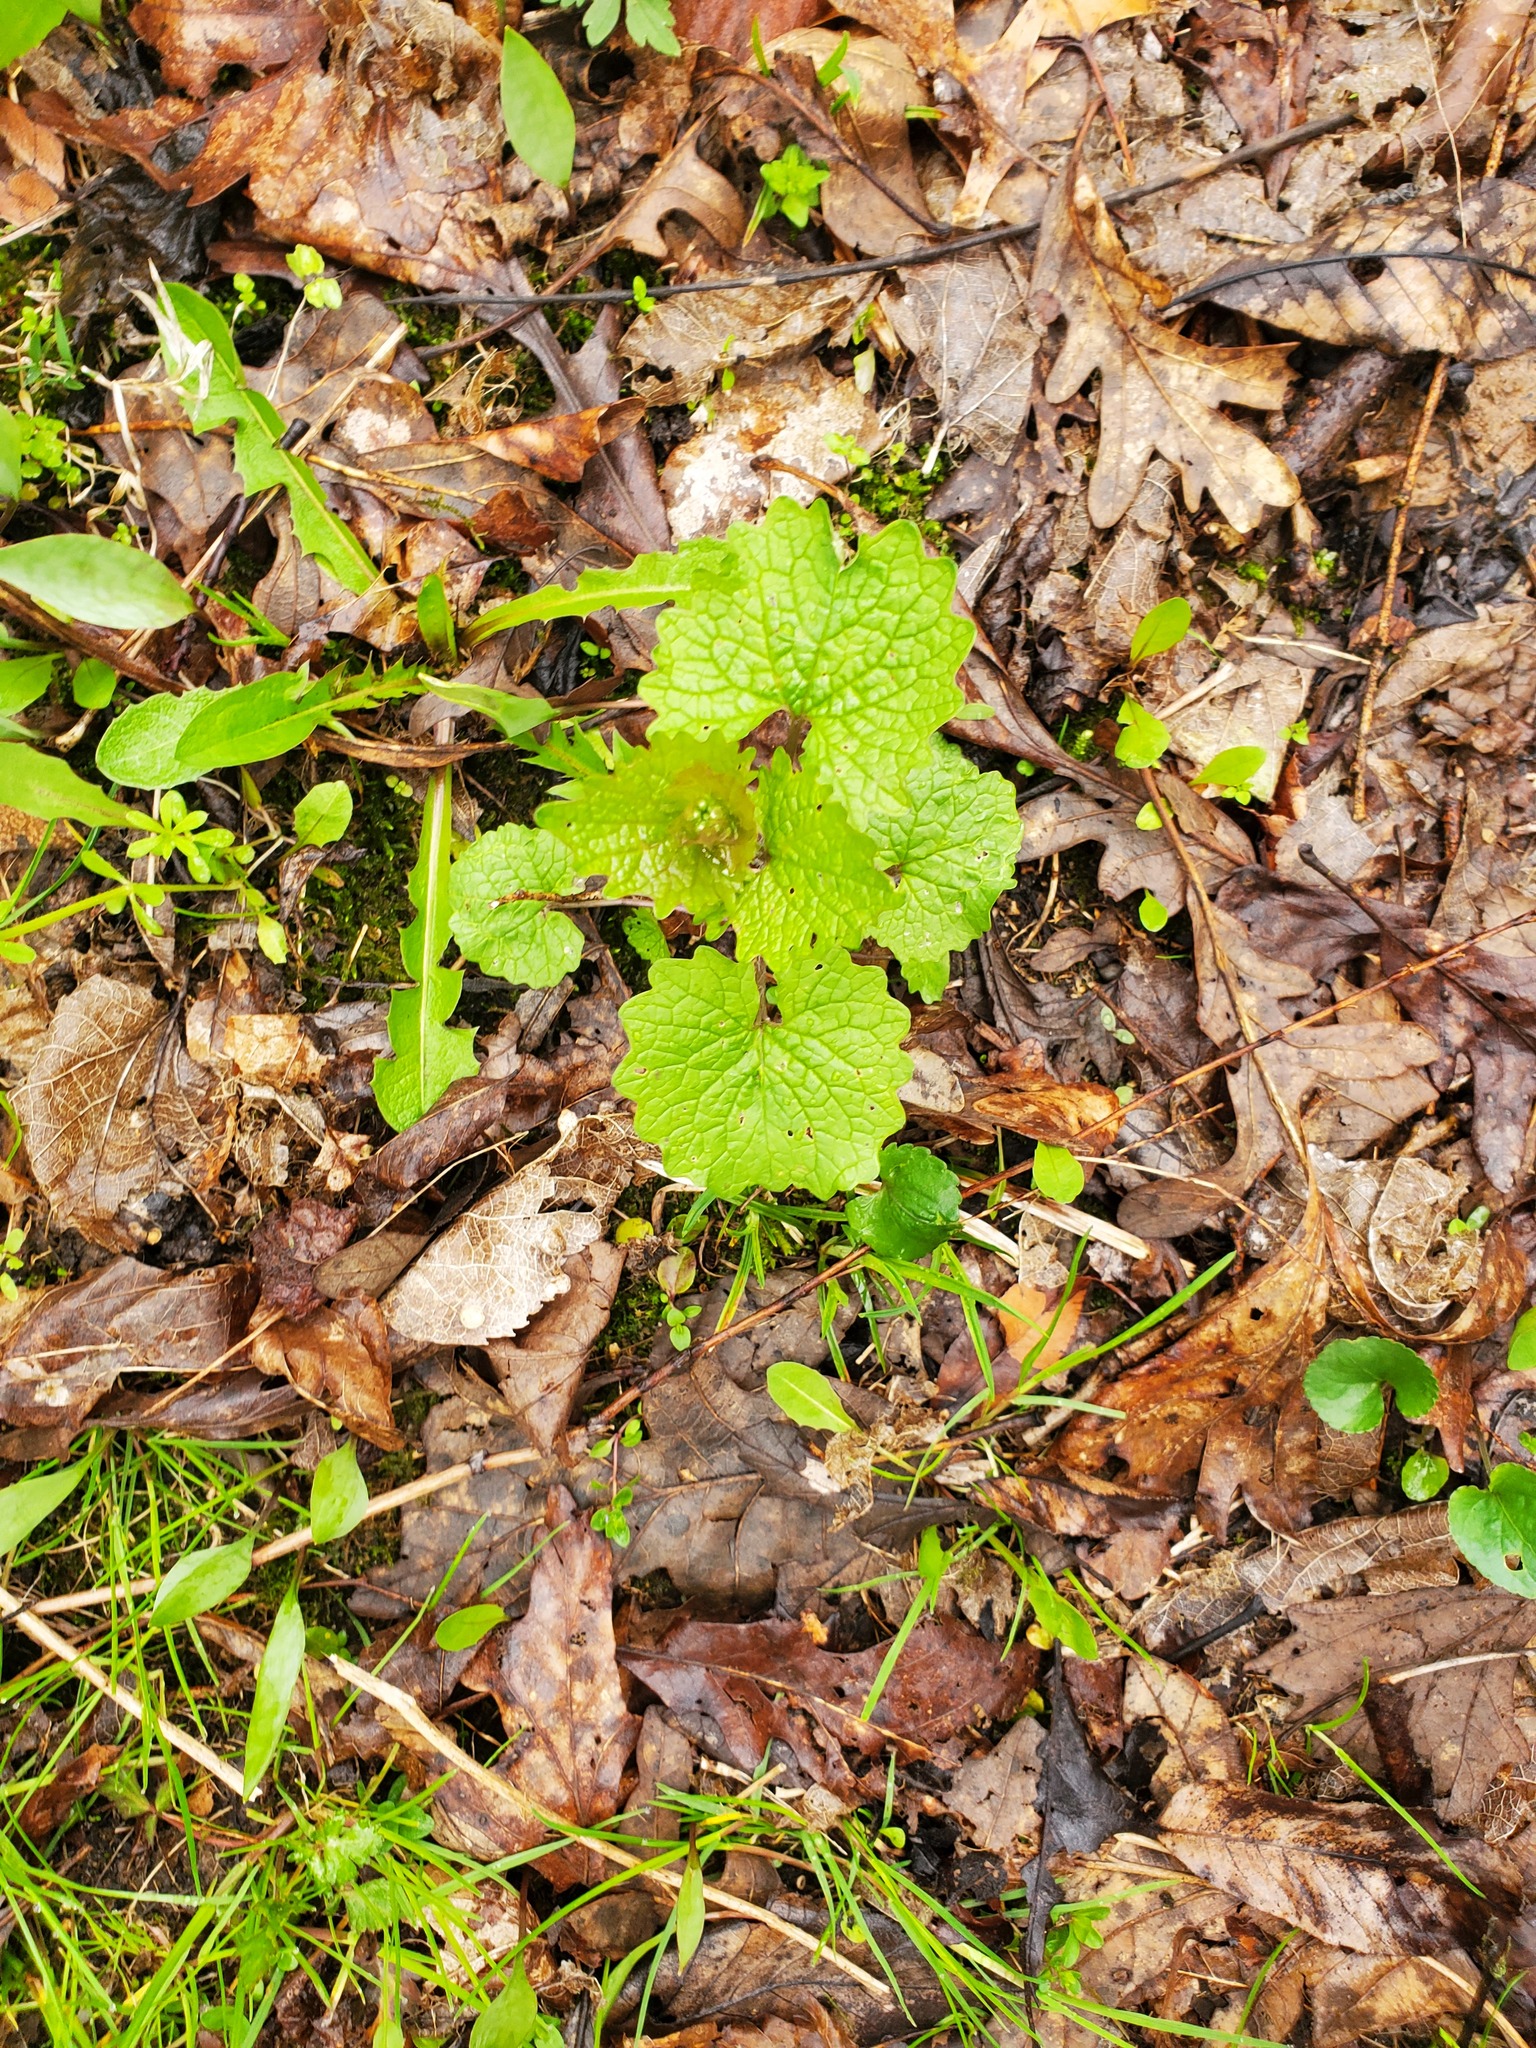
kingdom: Plantae
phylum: Tracheophyta
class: Magnoliopsida
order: Brassicales
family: Brassicaceae
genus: Alliaria
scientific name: Alliaria petiolata
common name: Garlic mustard
